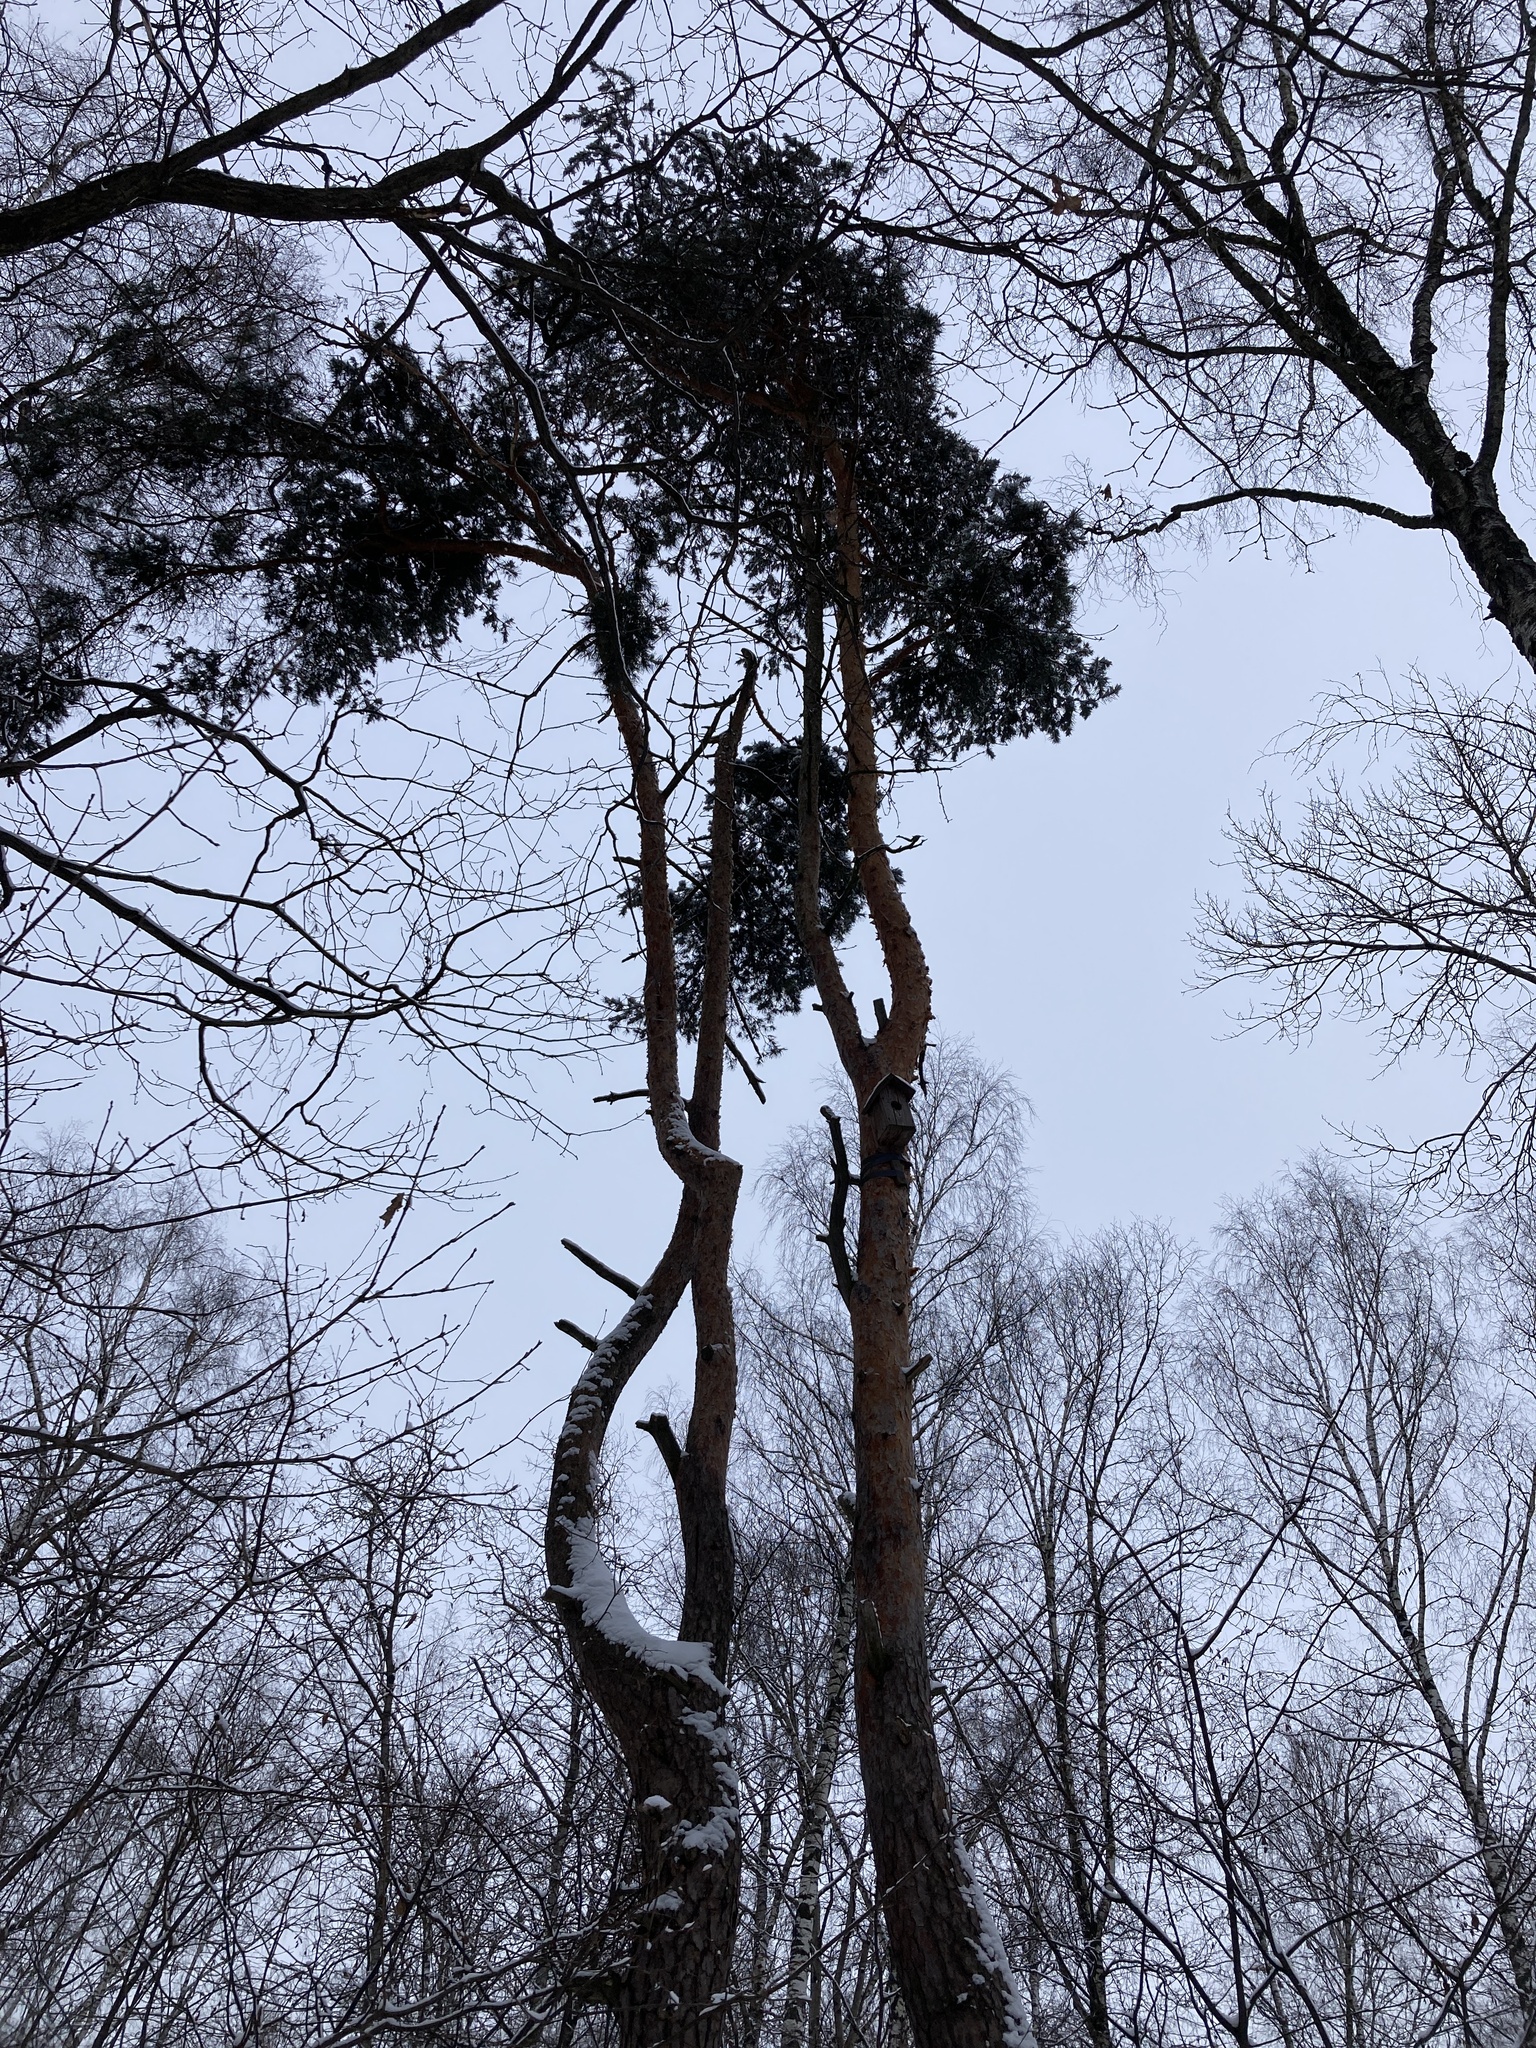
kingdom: Plantae
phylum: Tracheophyta
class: Pinopsida
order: Pinales
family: Pinaceae
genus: Pinus
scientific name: Pinus sylvestris
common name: Scots pine
